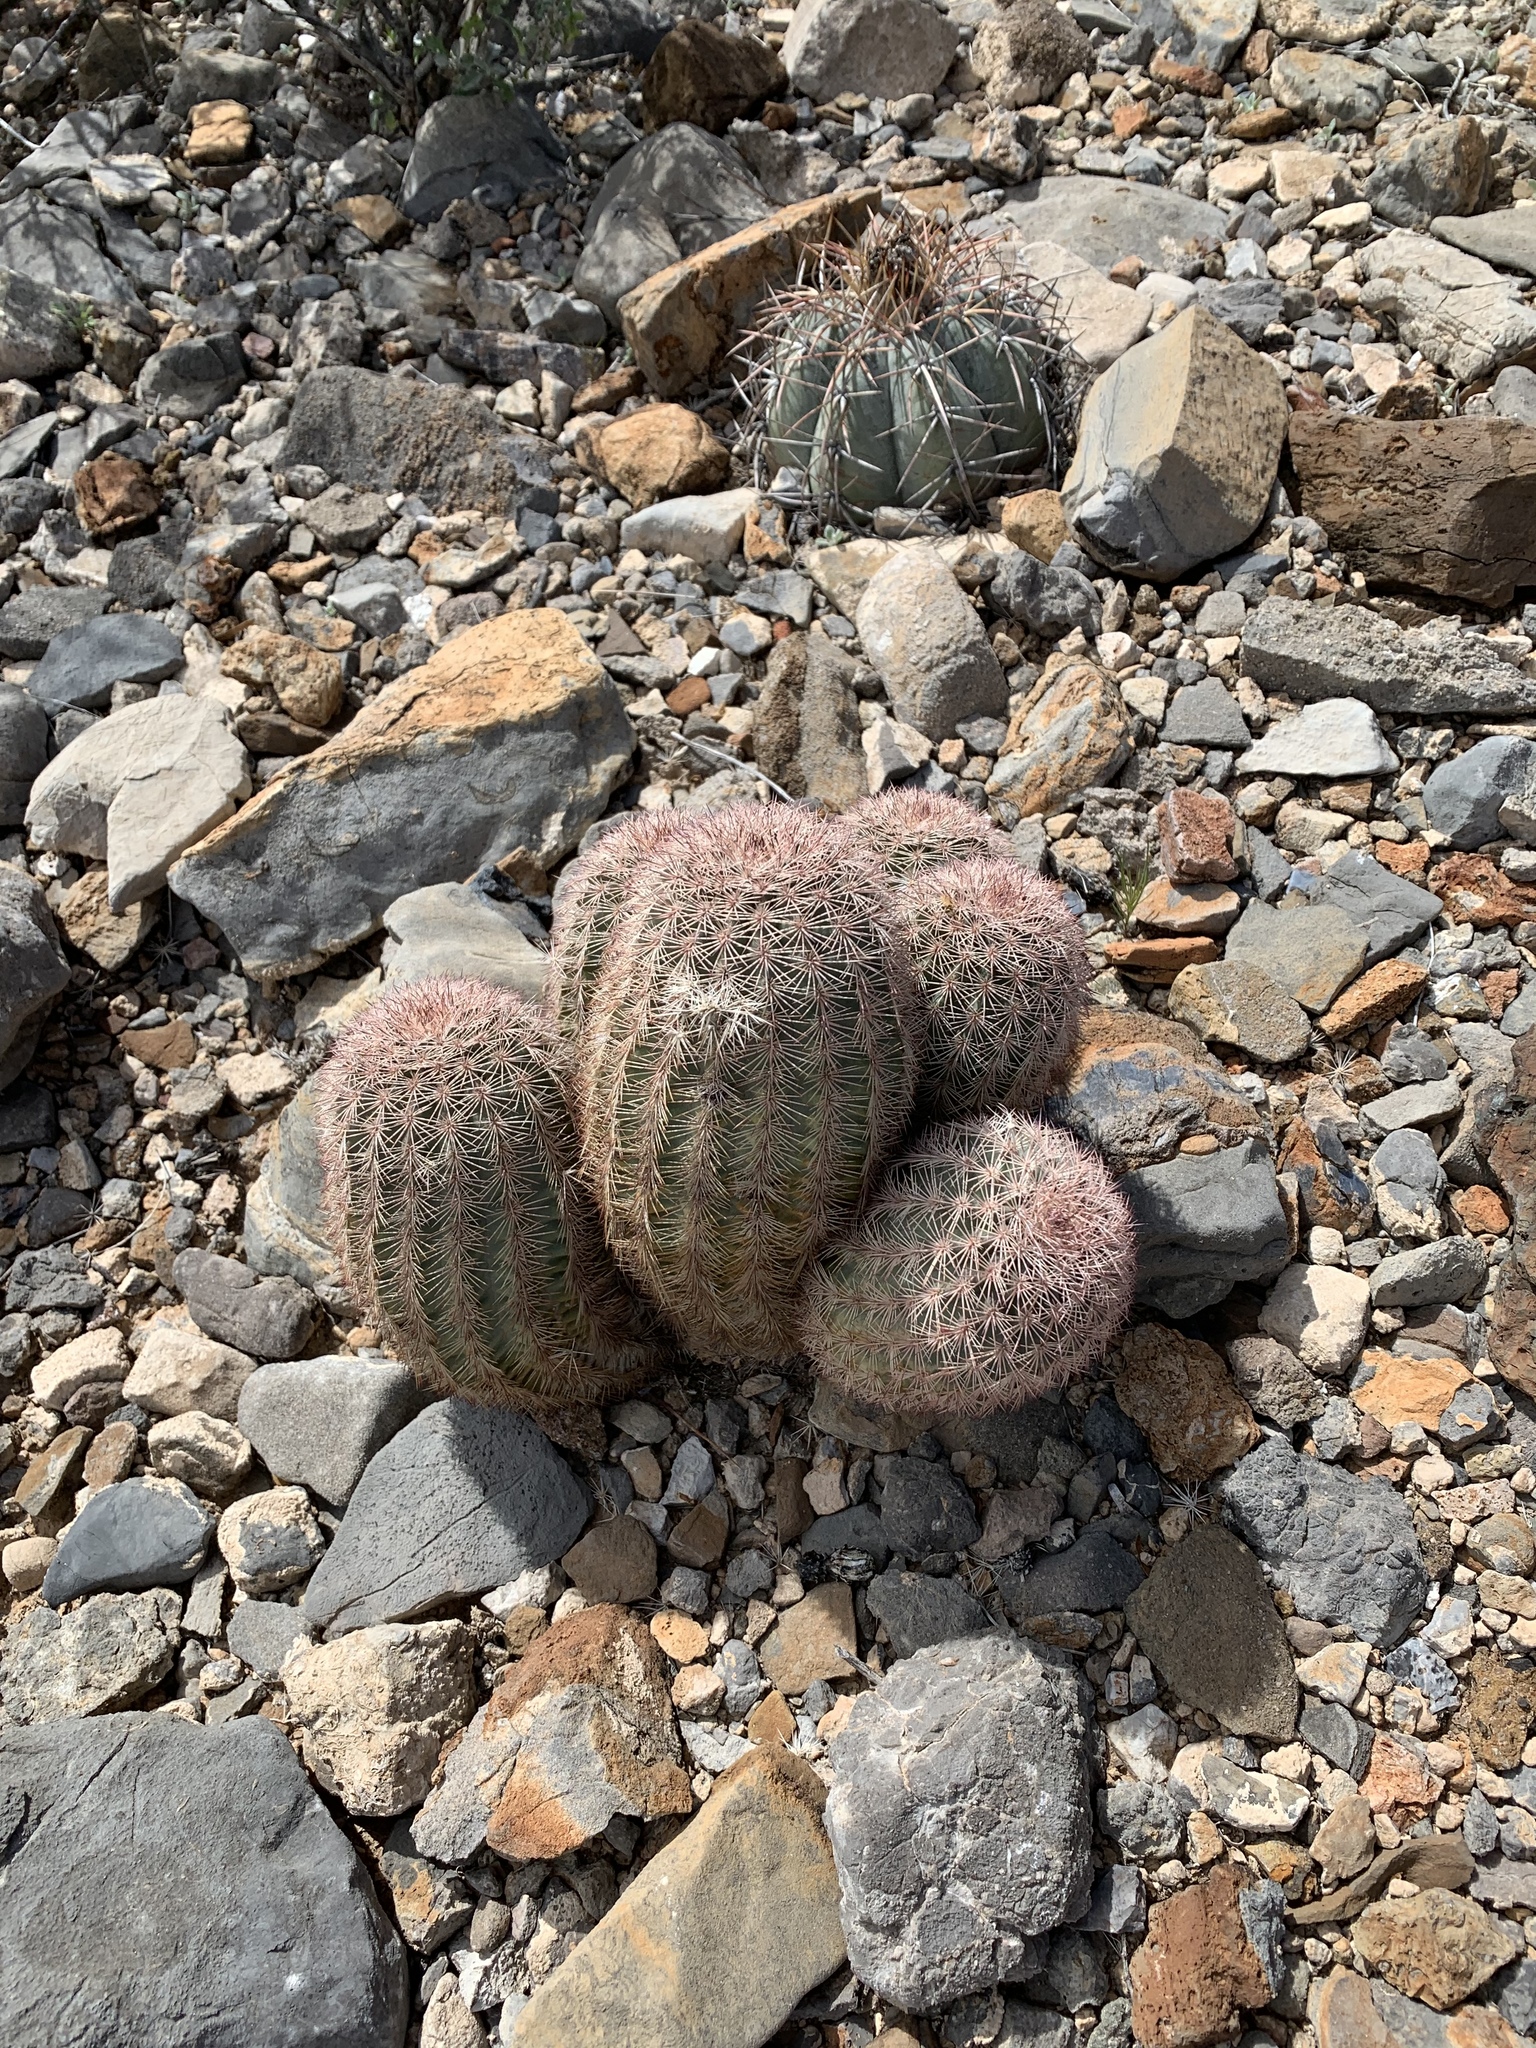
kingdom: Plantae
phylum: Tracheophyta
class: Magnoliopsida
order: Caryophyllales
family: Cactaceae
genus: Echinocereus
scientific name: Echinocereus dasyacanthus
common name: Spiny hedgehog cactus
